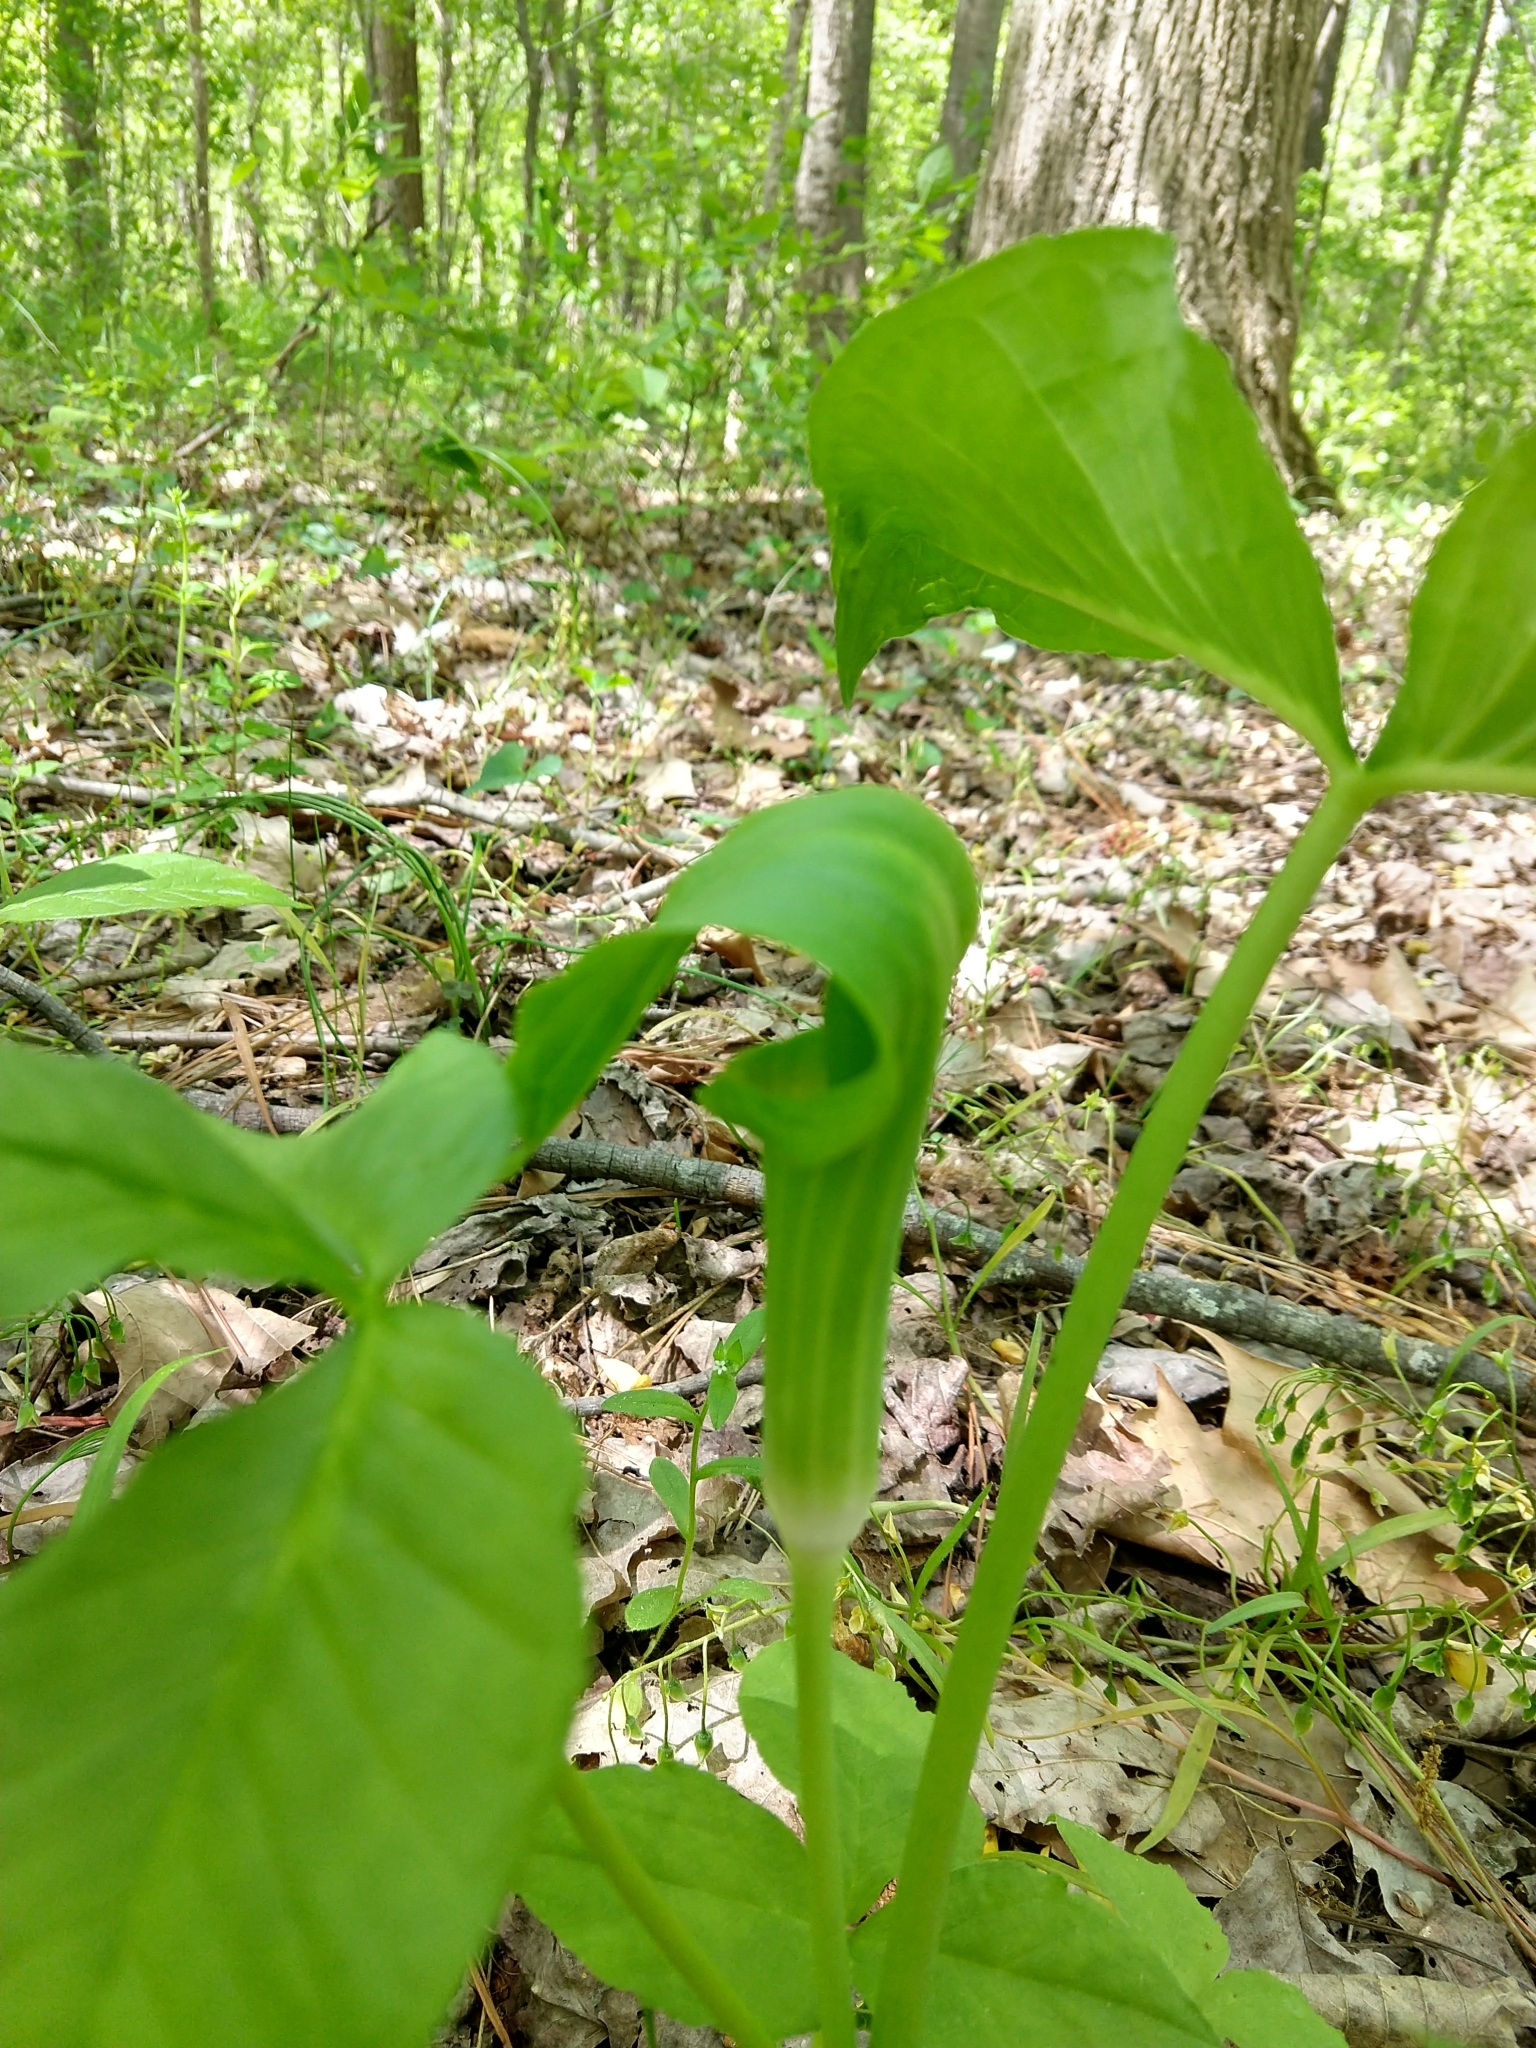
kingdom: Plantae
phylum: Tracheophyta
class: Liliopsida
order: Alismatales
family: Araceae
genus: Arisaema
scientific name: Arisaema triphyllum
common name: Jack-in-the-pulpit
